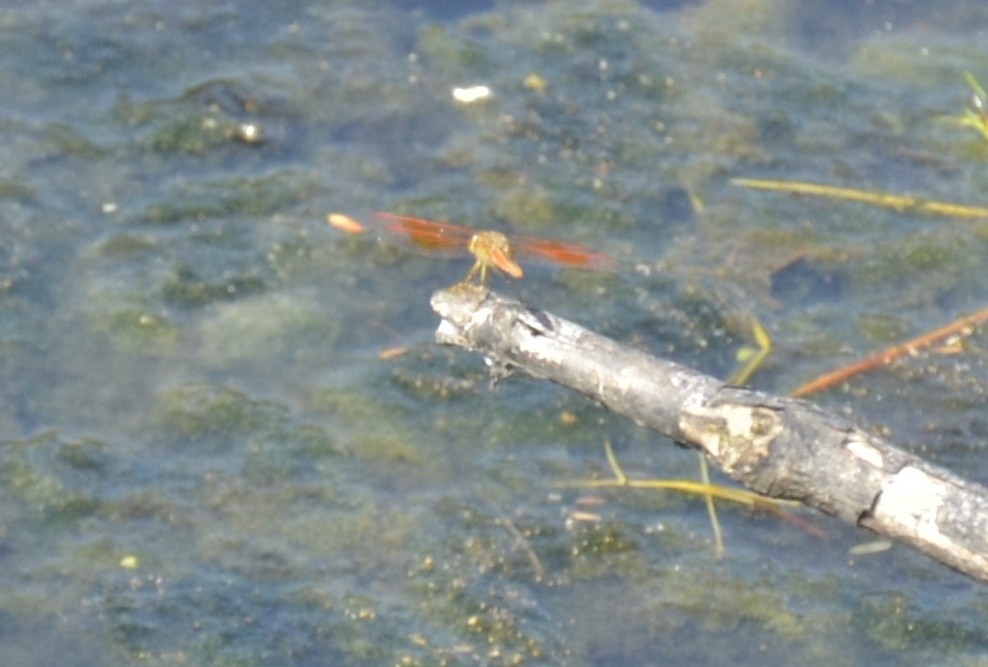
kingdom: Animalia
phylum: Arthropoda
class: Insecta
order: Odonata
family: Libellulidae
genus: Brachythemis
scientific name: Brachythemis contaminata
